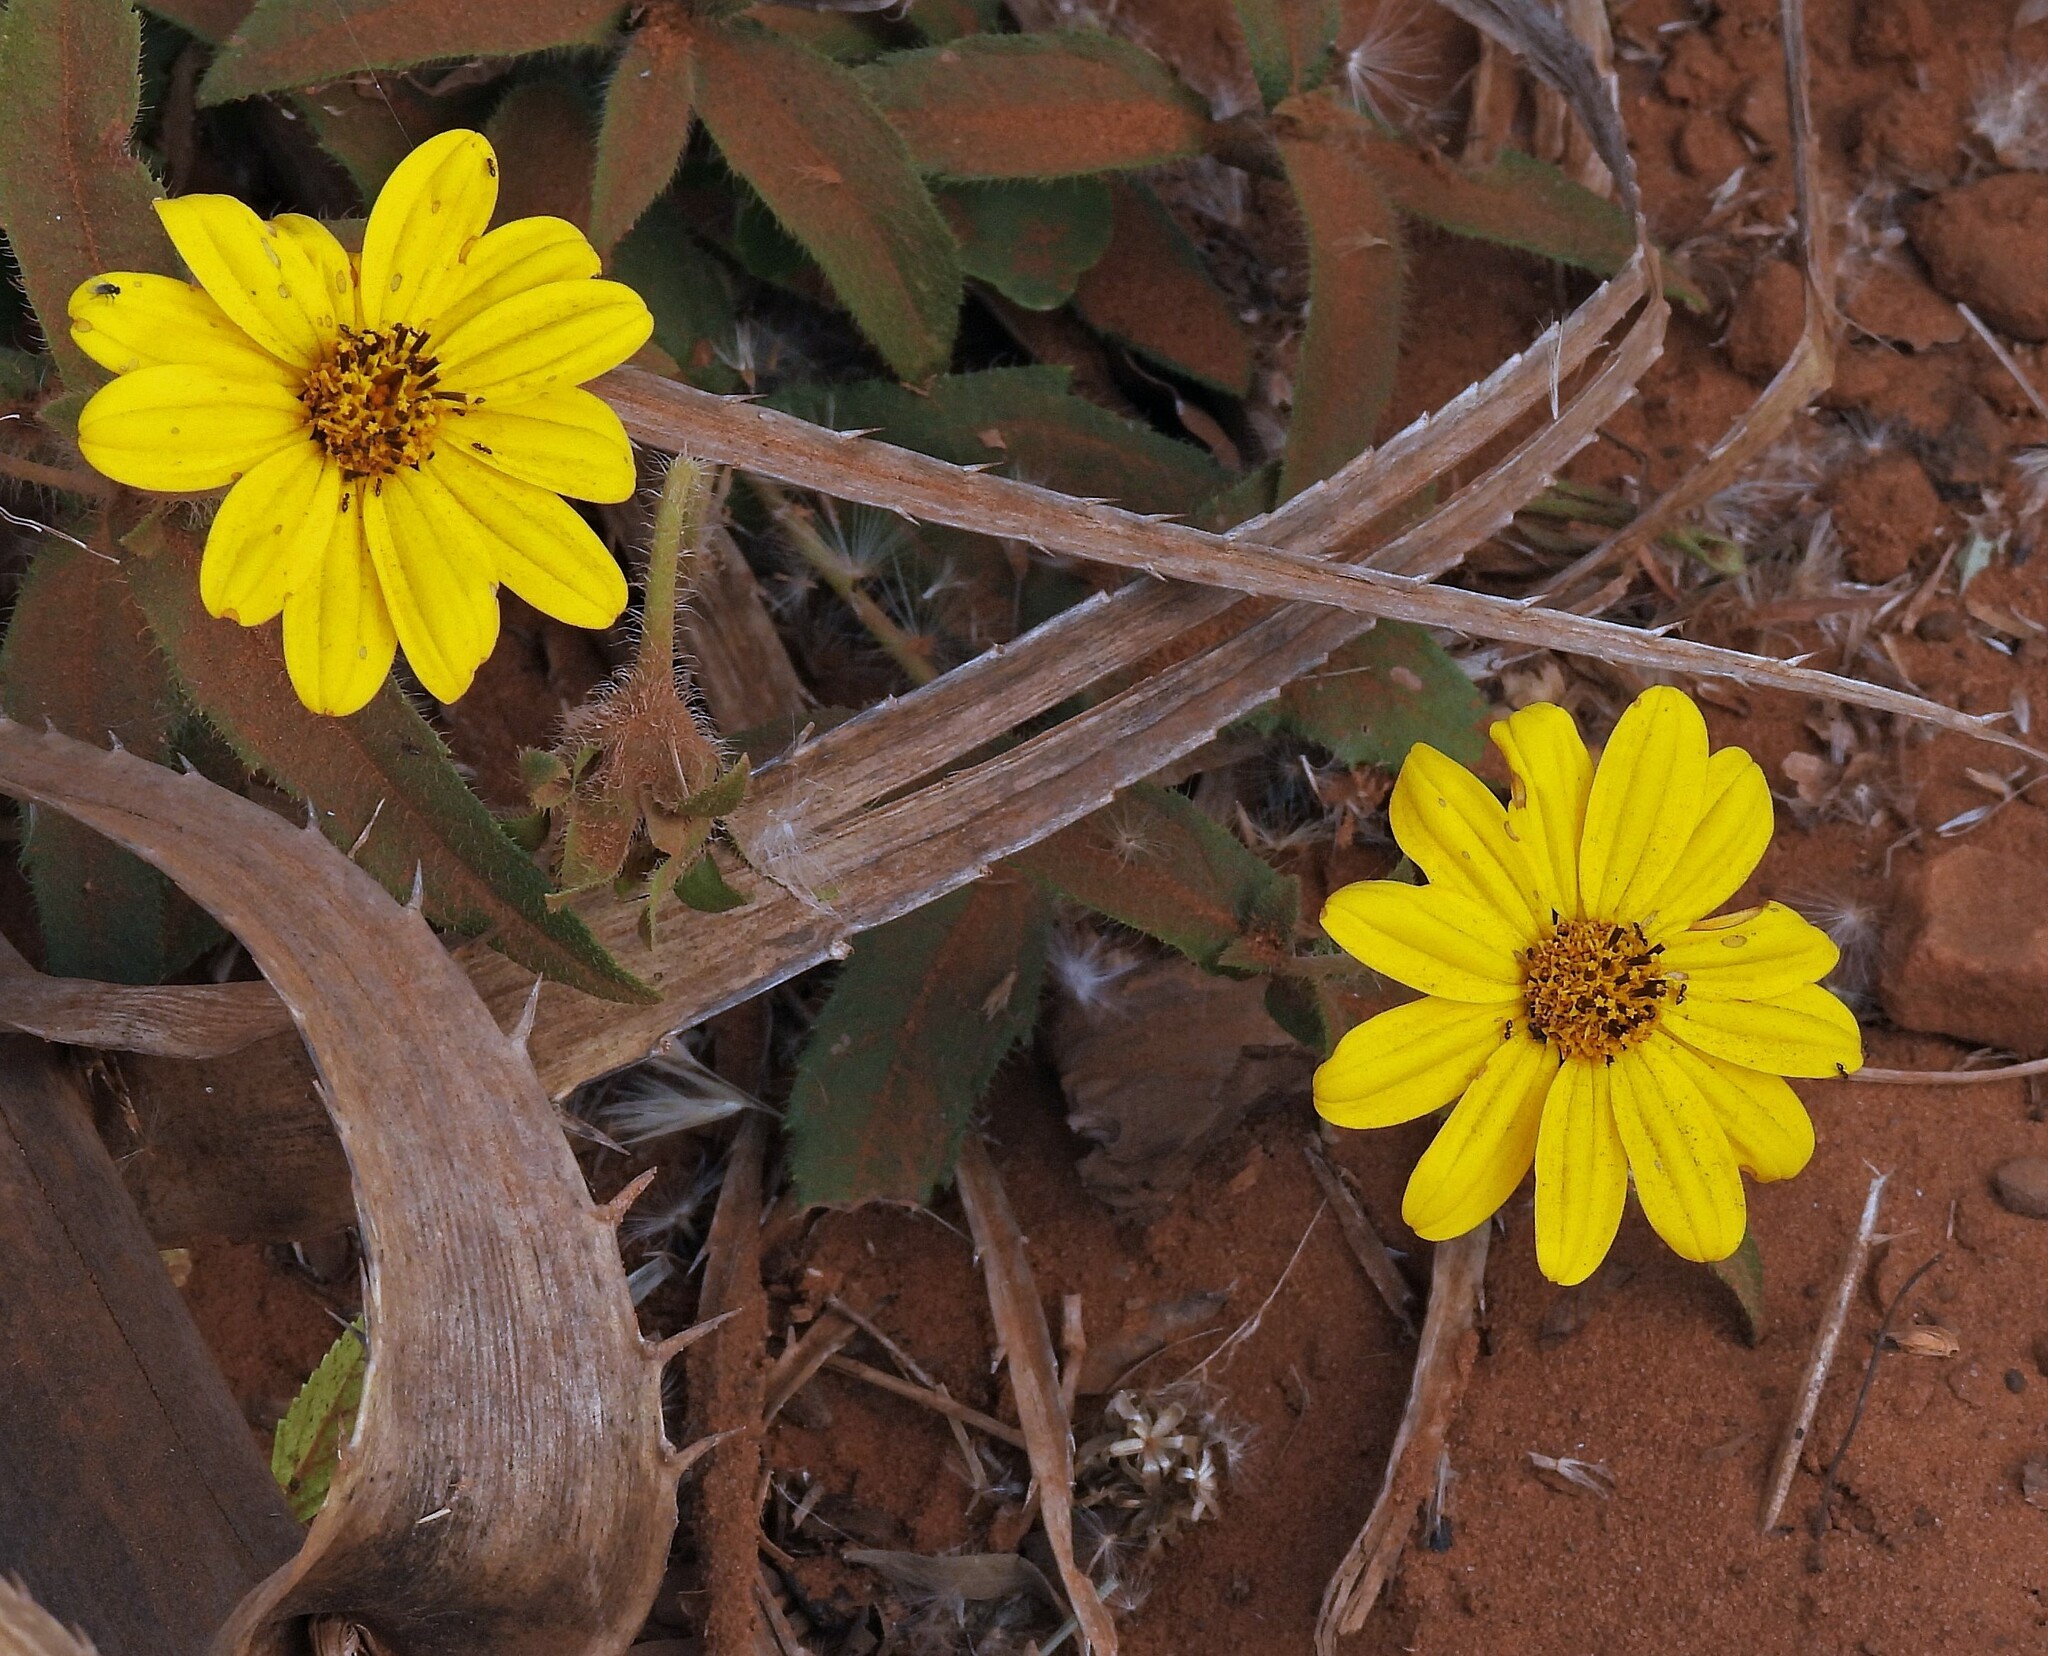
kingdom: Plantae
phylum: Tracheophyta
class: Magnoliopsida
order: Asterales
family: Asteraceae
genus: Wedelia
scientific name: Wedelia montevidensis
